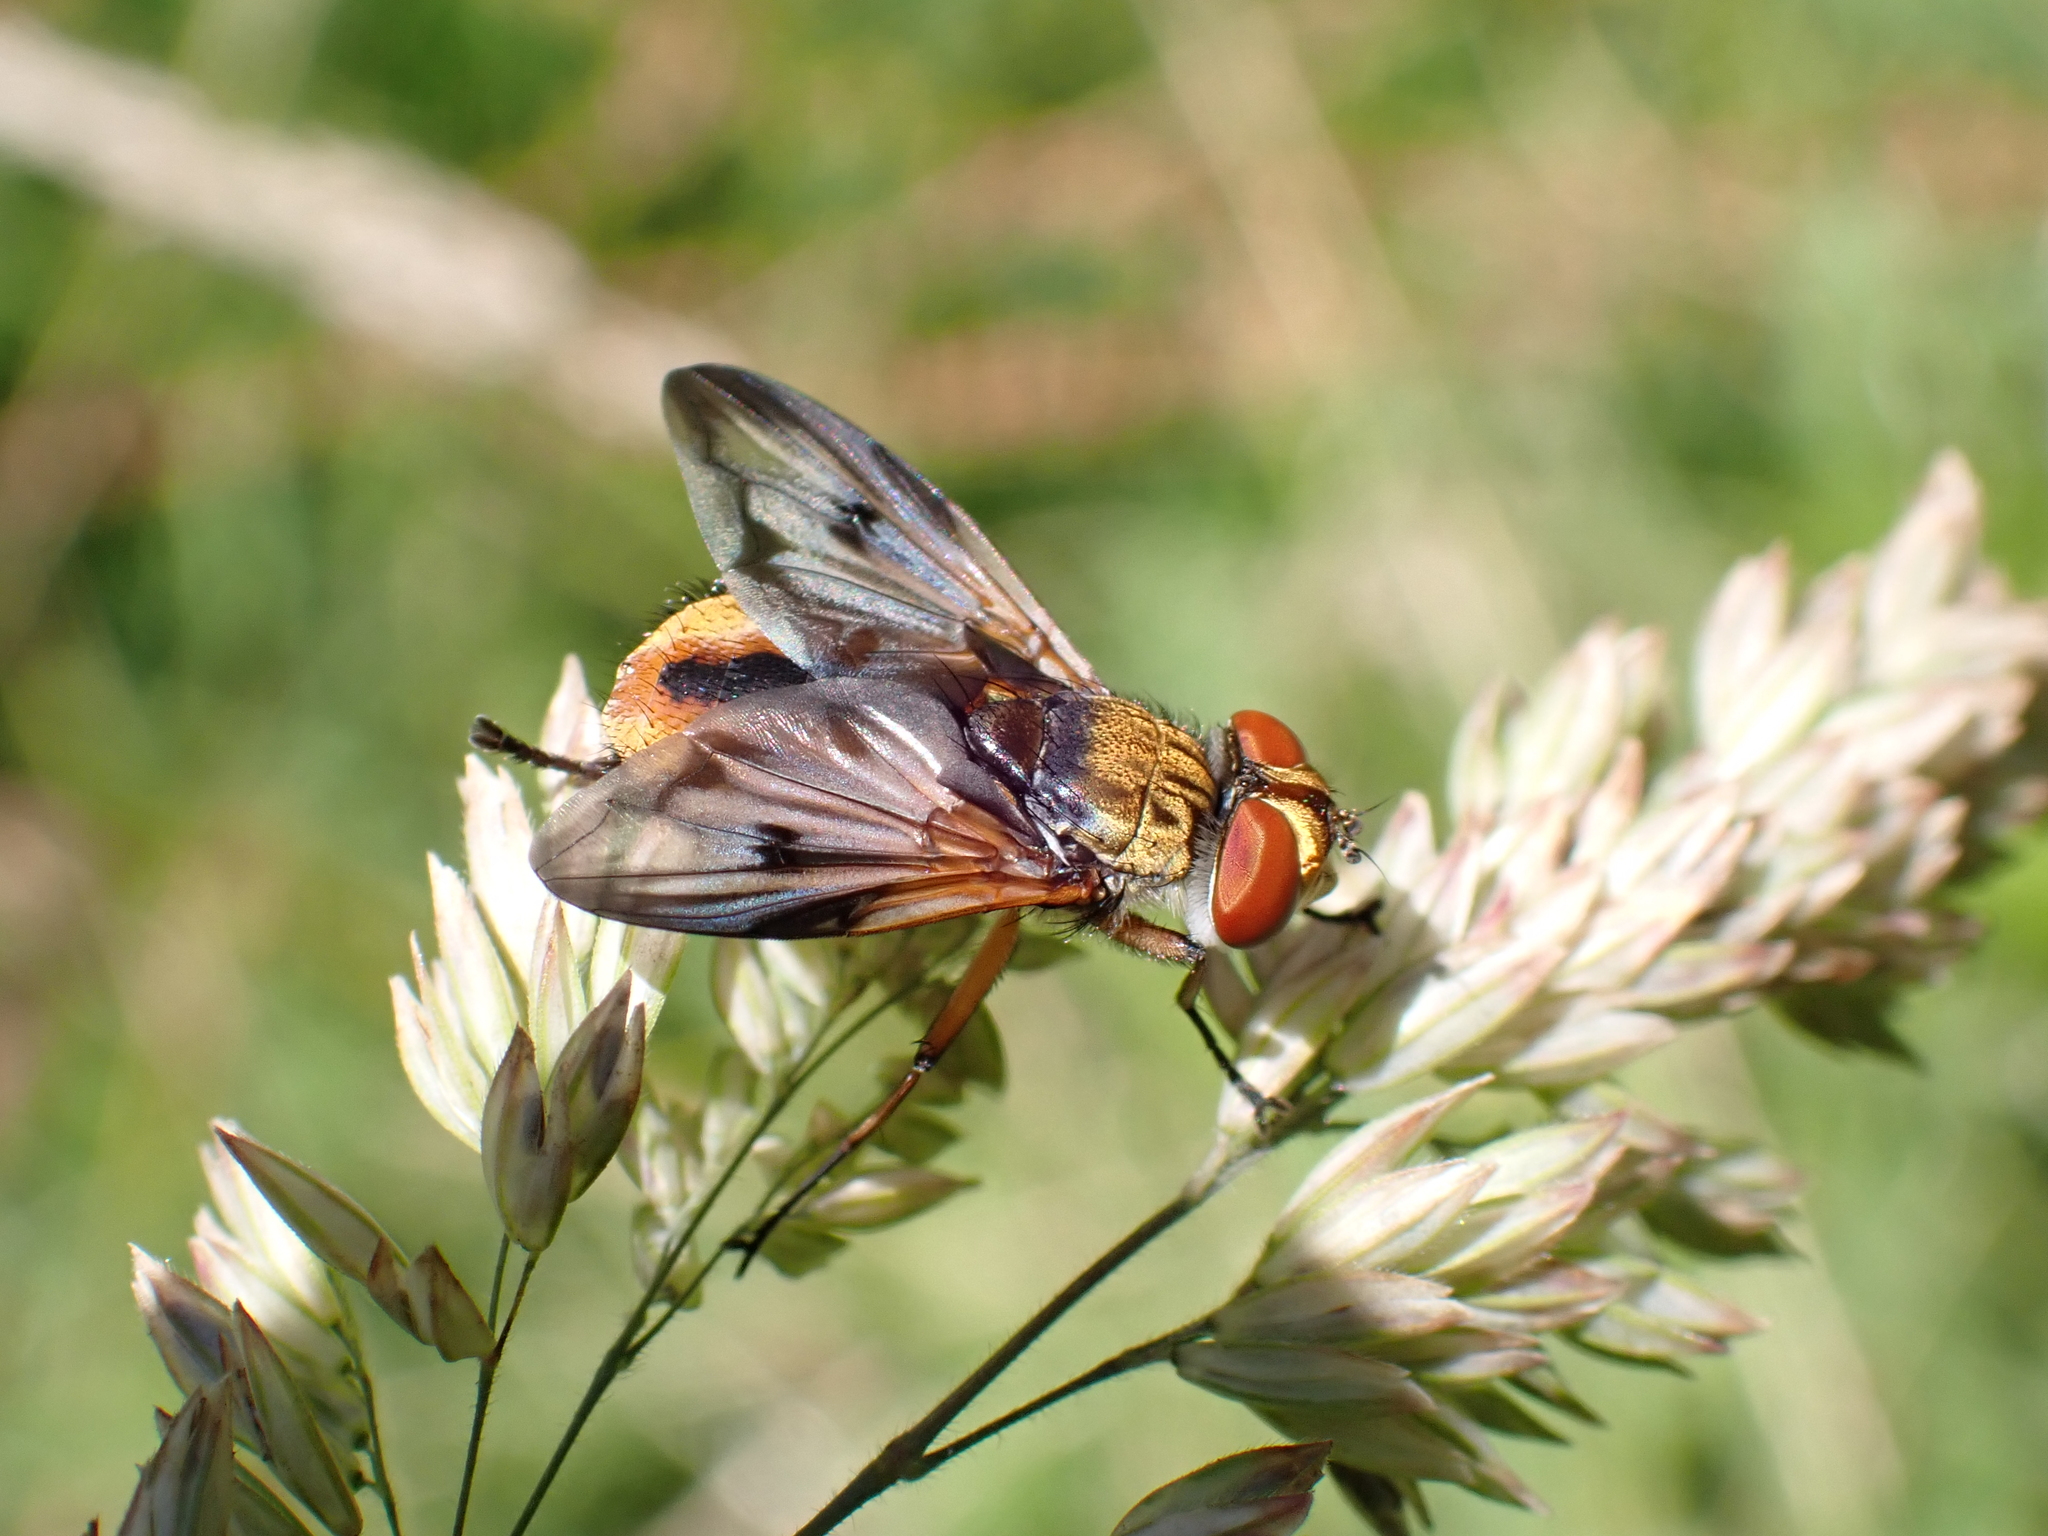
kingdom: Animalia
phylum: Arthropoda
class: Insecta
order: Diptera
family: Tachinidae
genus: Ectophasia
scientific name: Ectophasia crassipennis
